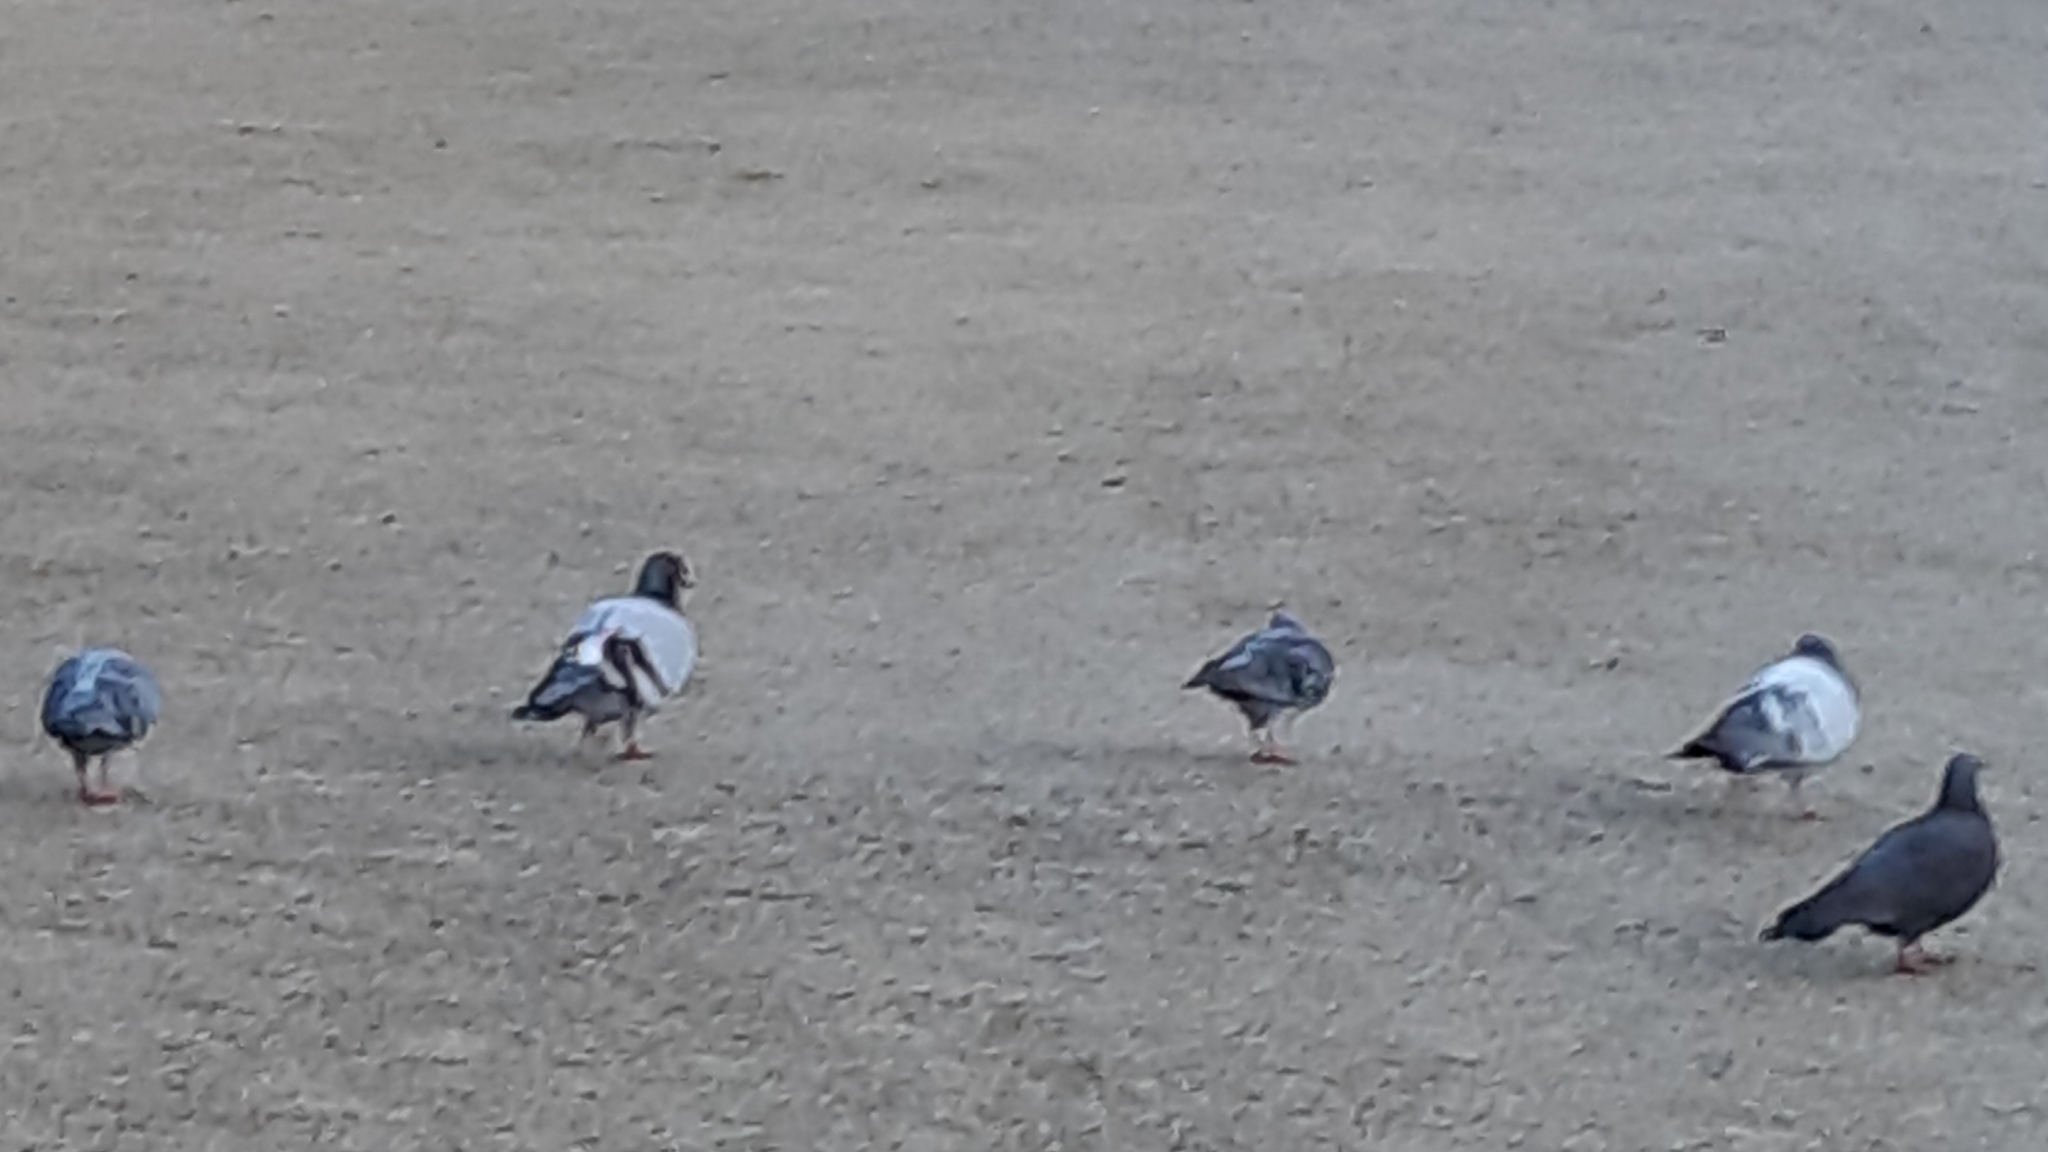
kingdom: Animalia
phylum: Chordata
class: Aves
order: Columbiformes
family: Columbidae
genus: Columba
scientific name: Columba livia
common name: Rock pigeon
